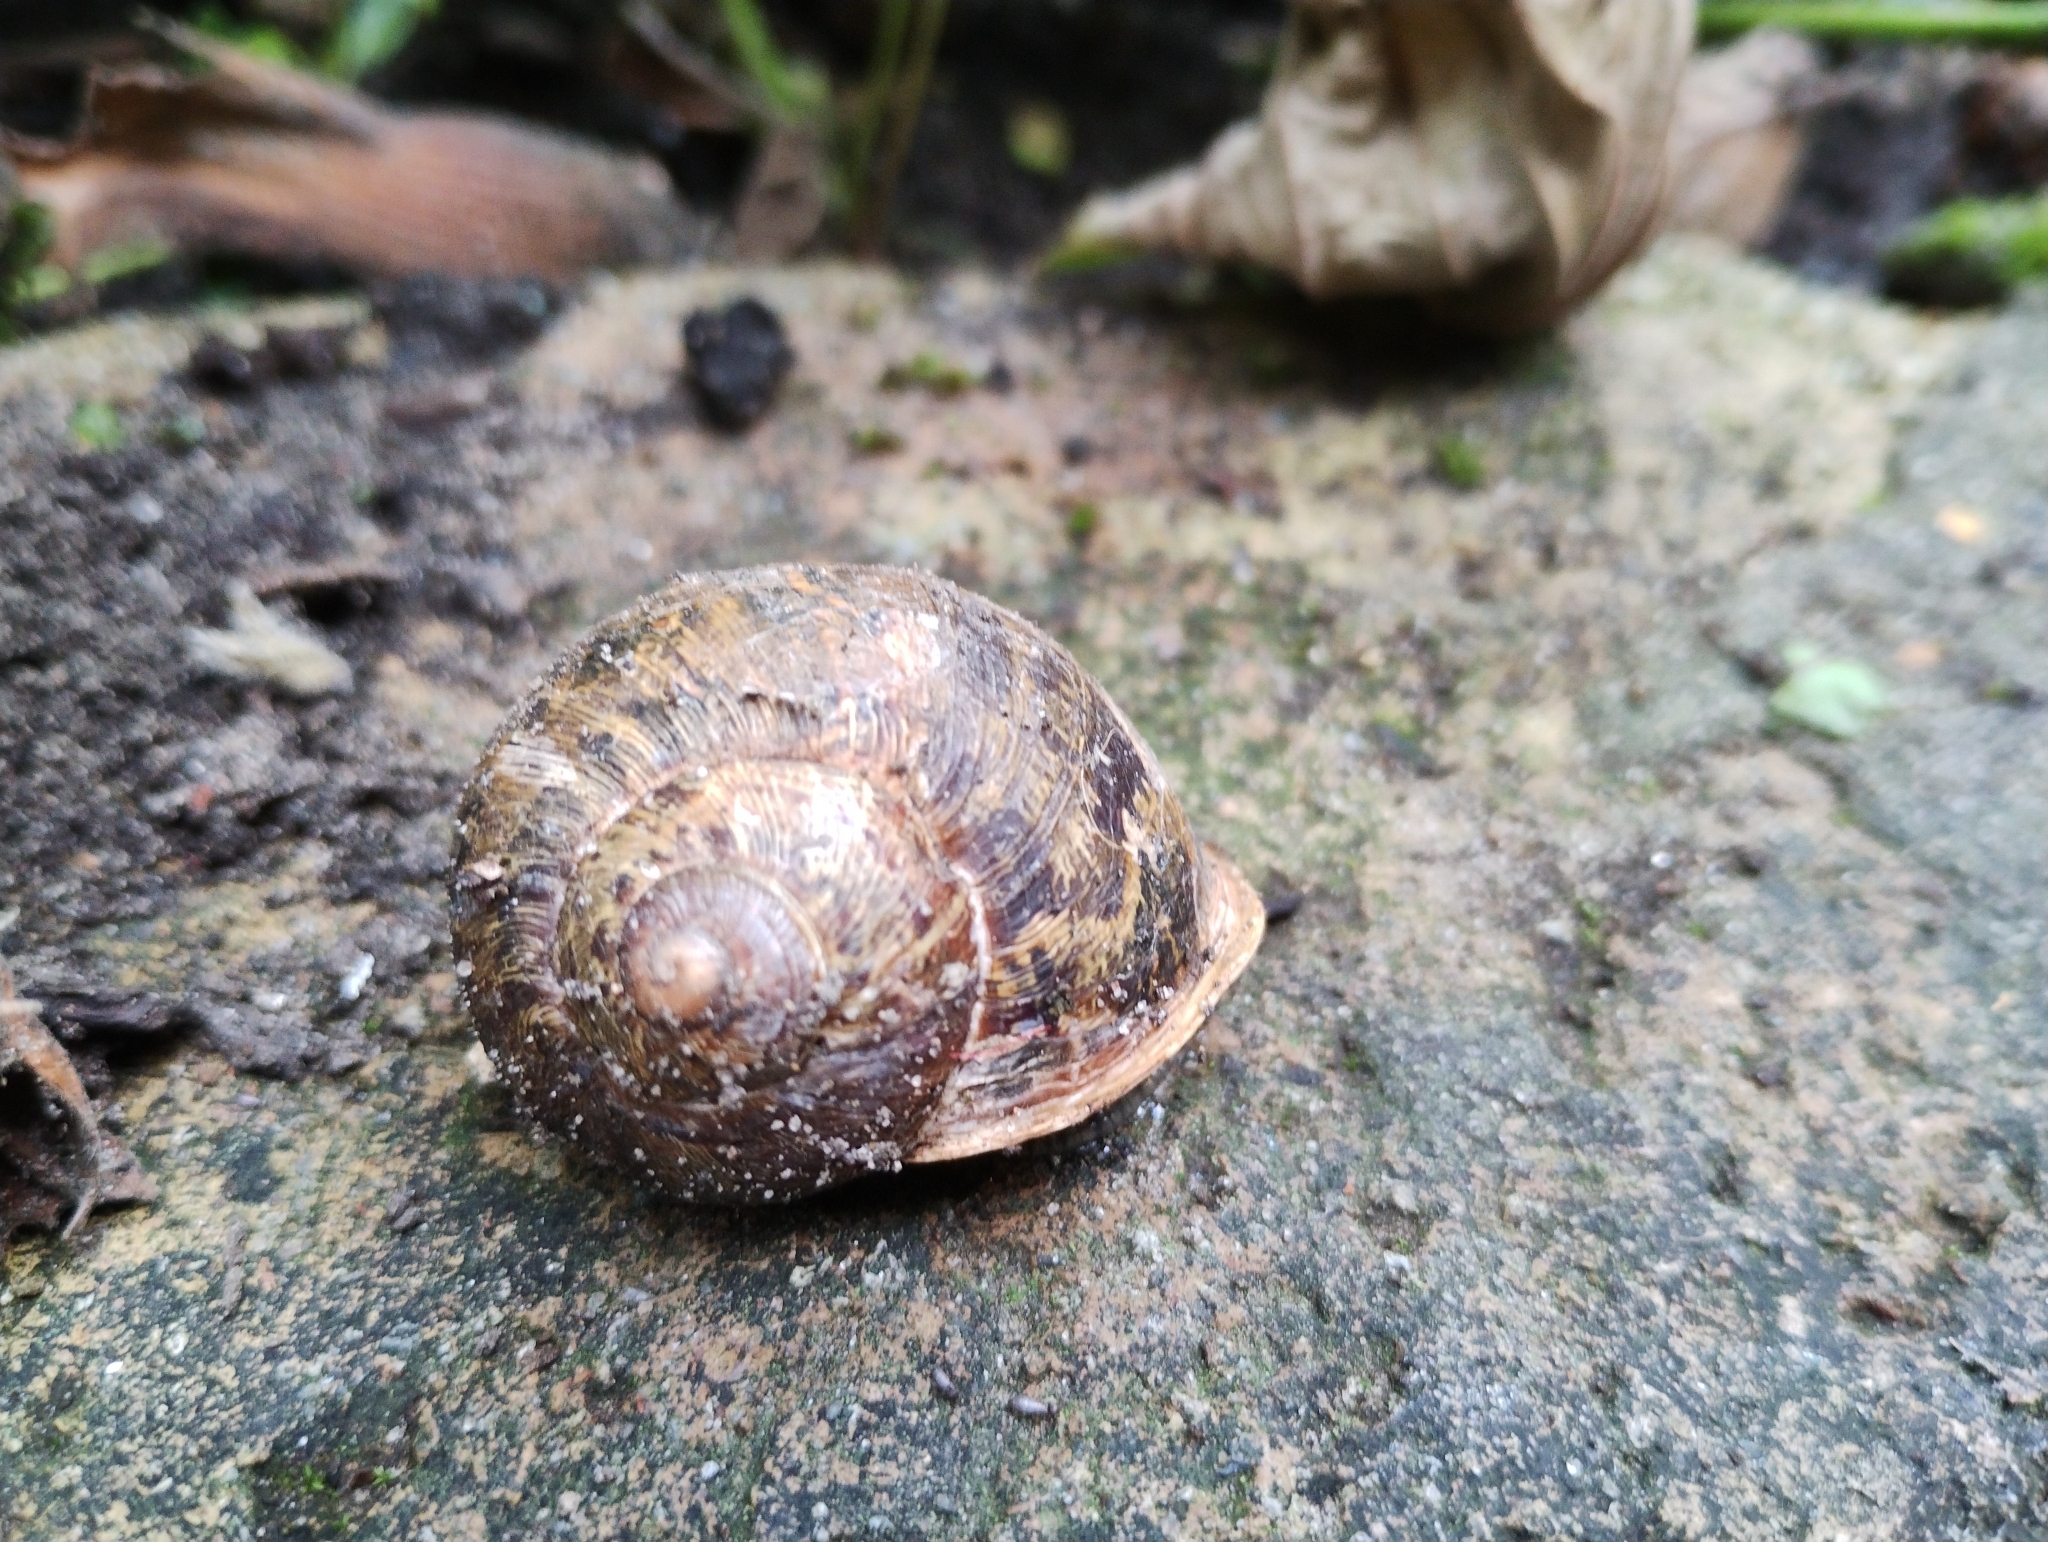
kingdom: Animalia
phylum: Mollusca
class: Gastropoda
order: Stylommatophora
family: Helicidae
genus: Cornu
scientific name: Cornu aspersum
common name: Brown garden snail
